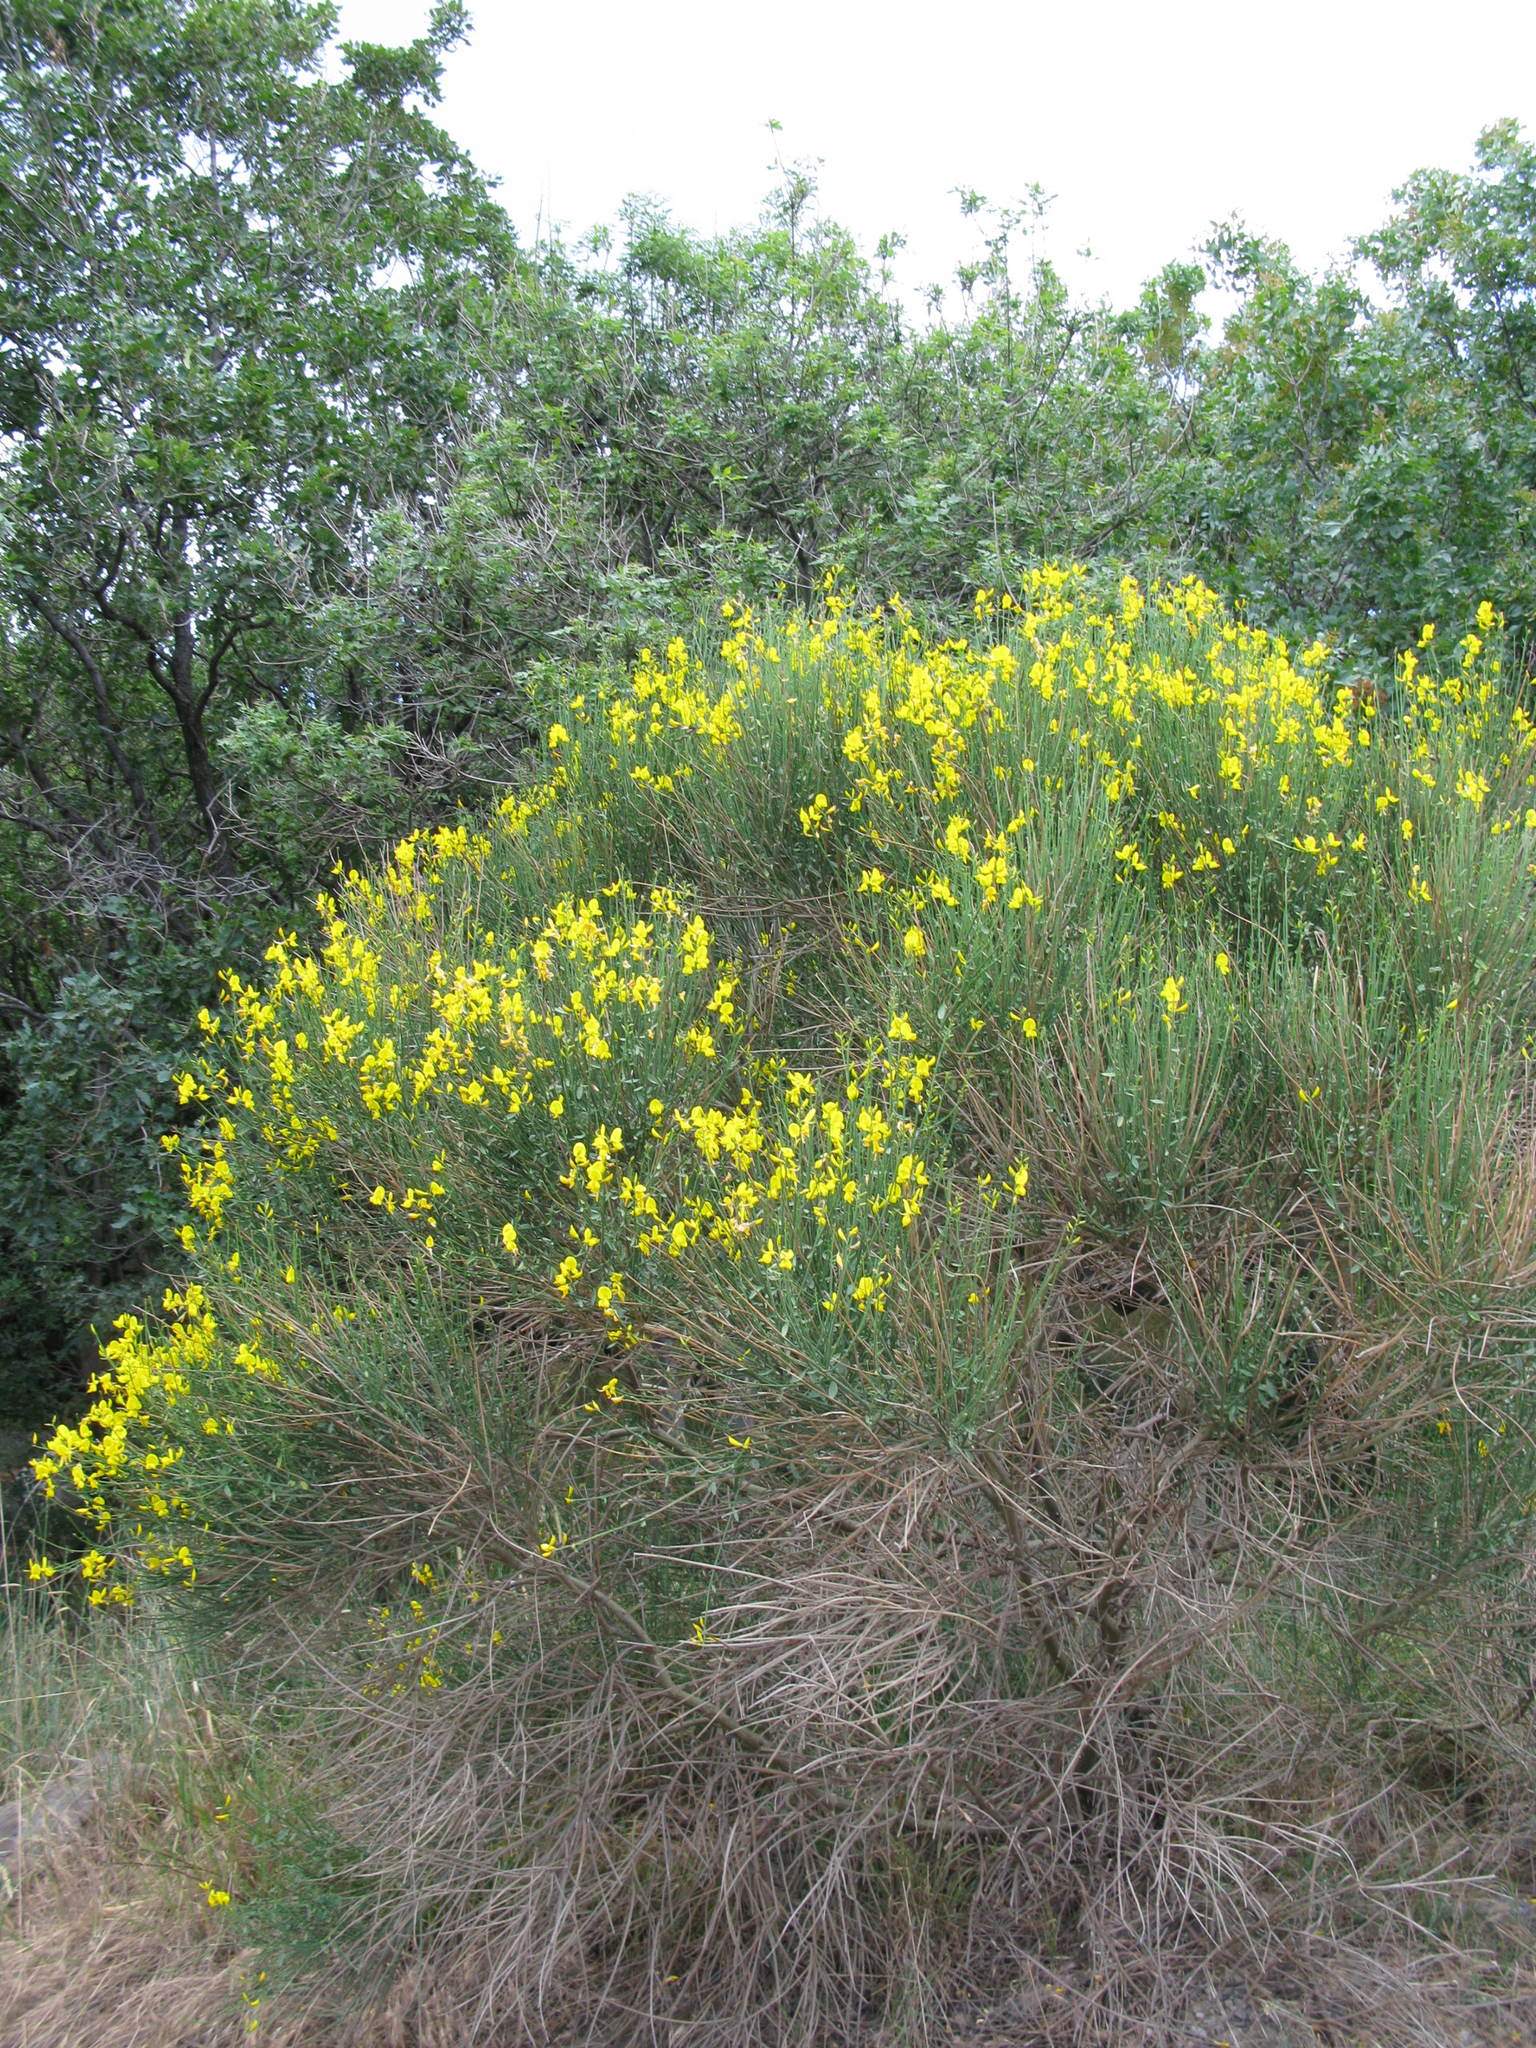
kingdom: Plantae
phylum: Tracheophyta
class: Magnoliopsida
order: Fabales
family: Fabaceae
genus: Spartium
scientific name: Spartium junceum
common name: Spanish broom
